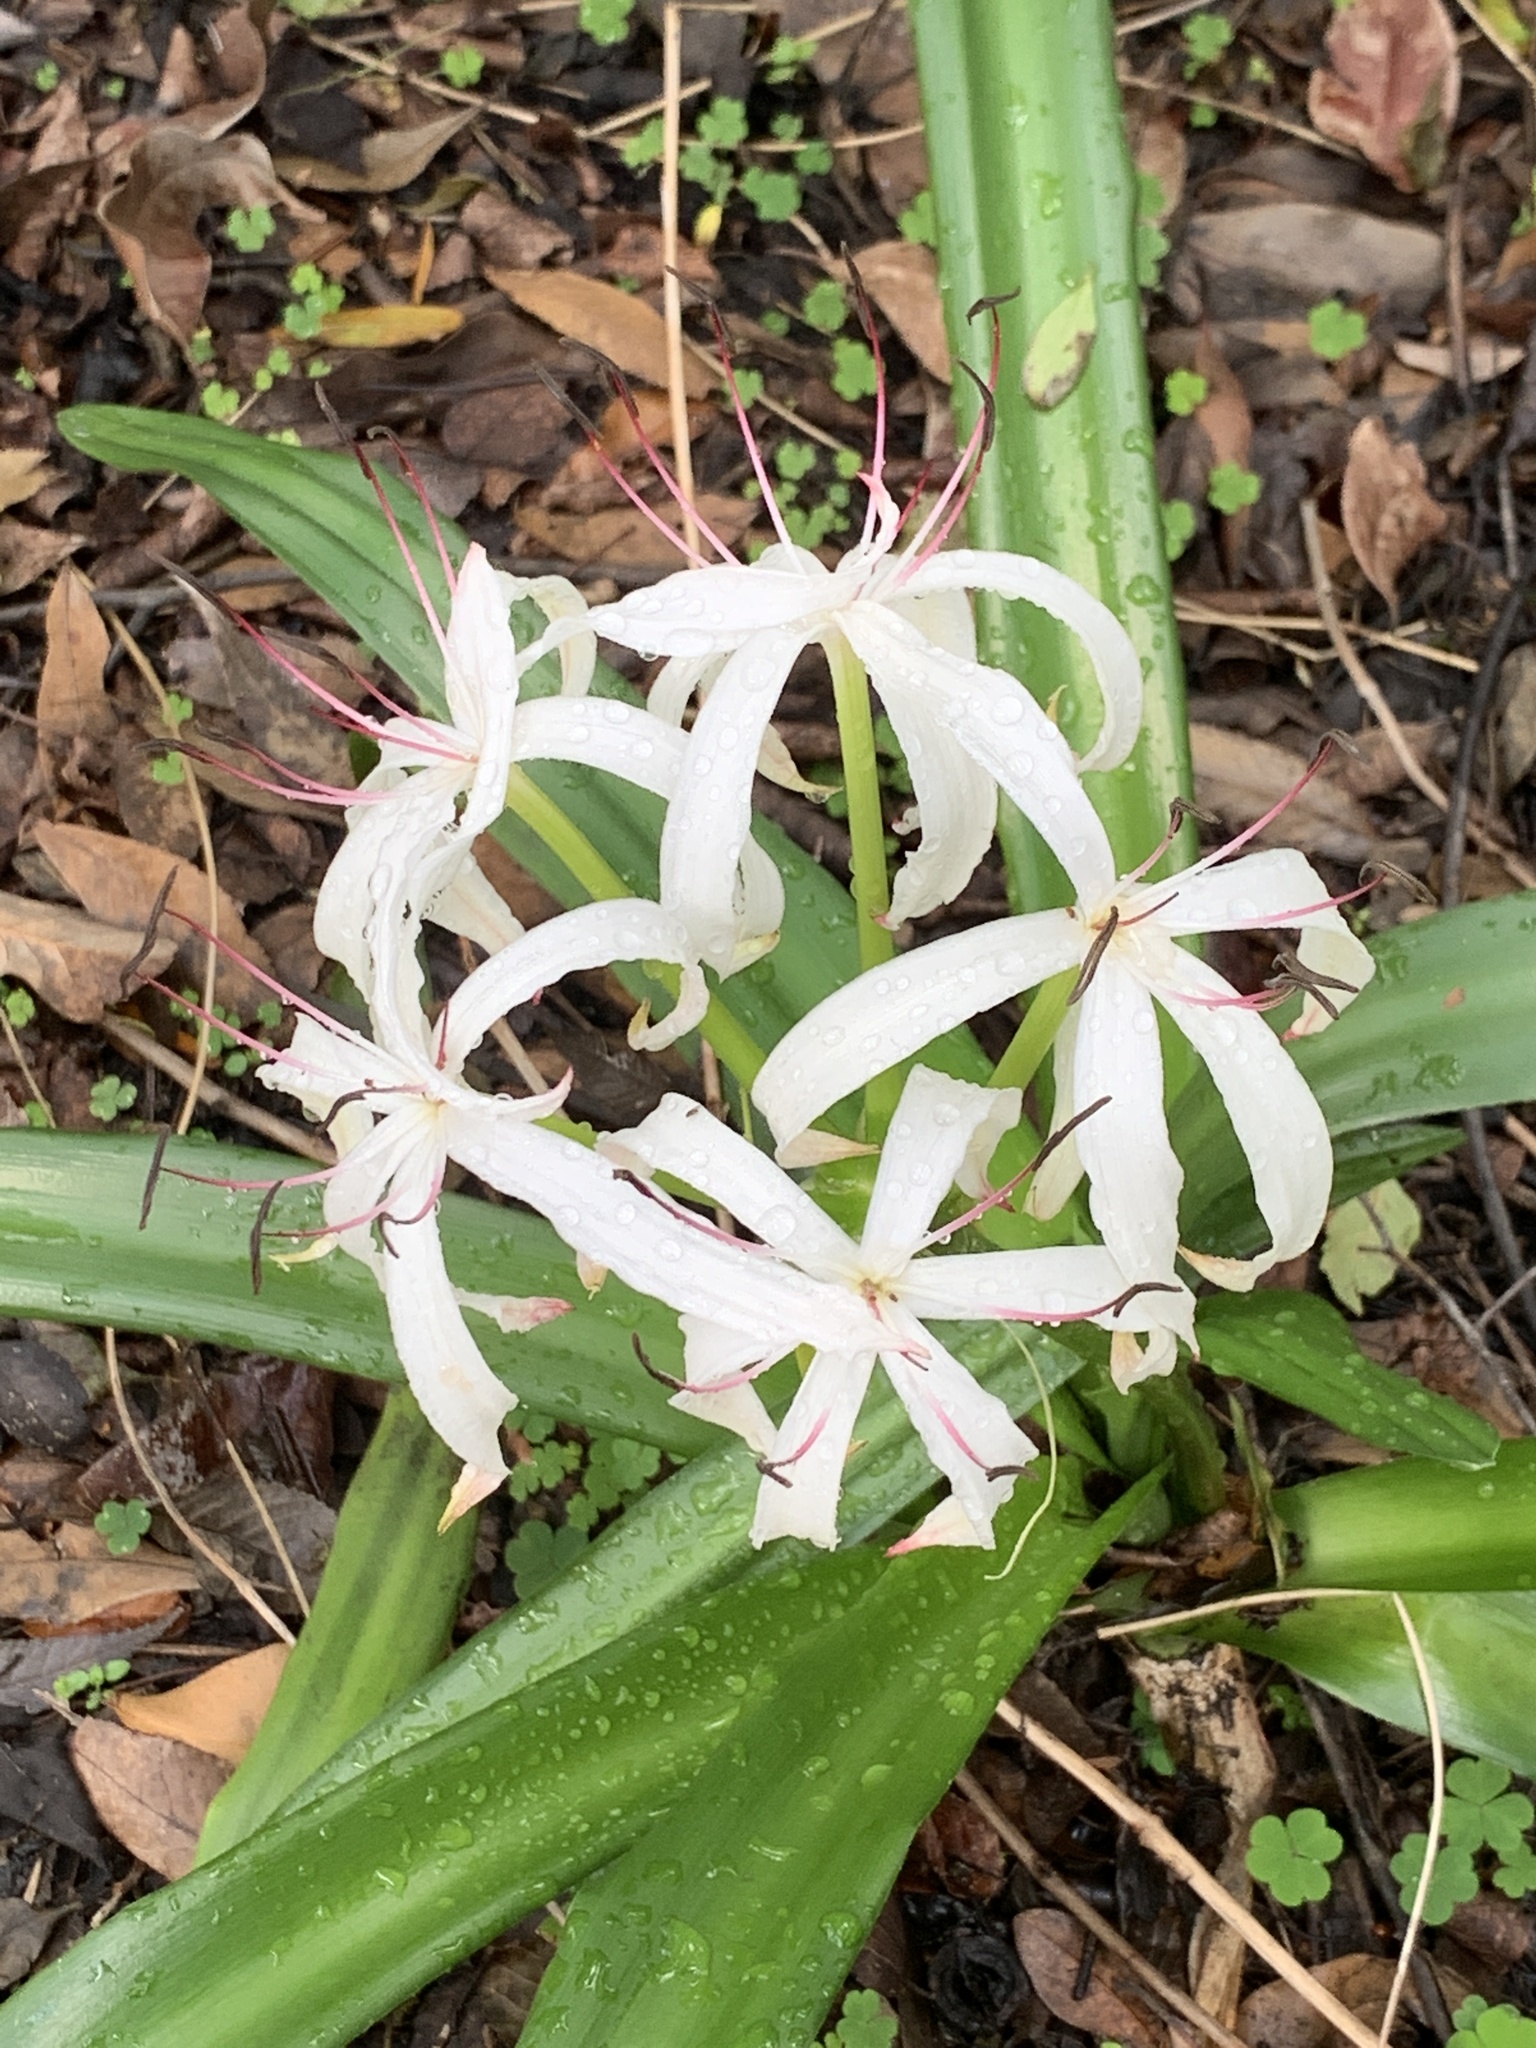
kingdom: Plantae
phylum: Tracheophyta
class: Liliopsida
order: Asparagales
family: Amaryllidaceae
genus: Crinum
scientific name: Crinum americanum
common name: Florida swamp-lily
